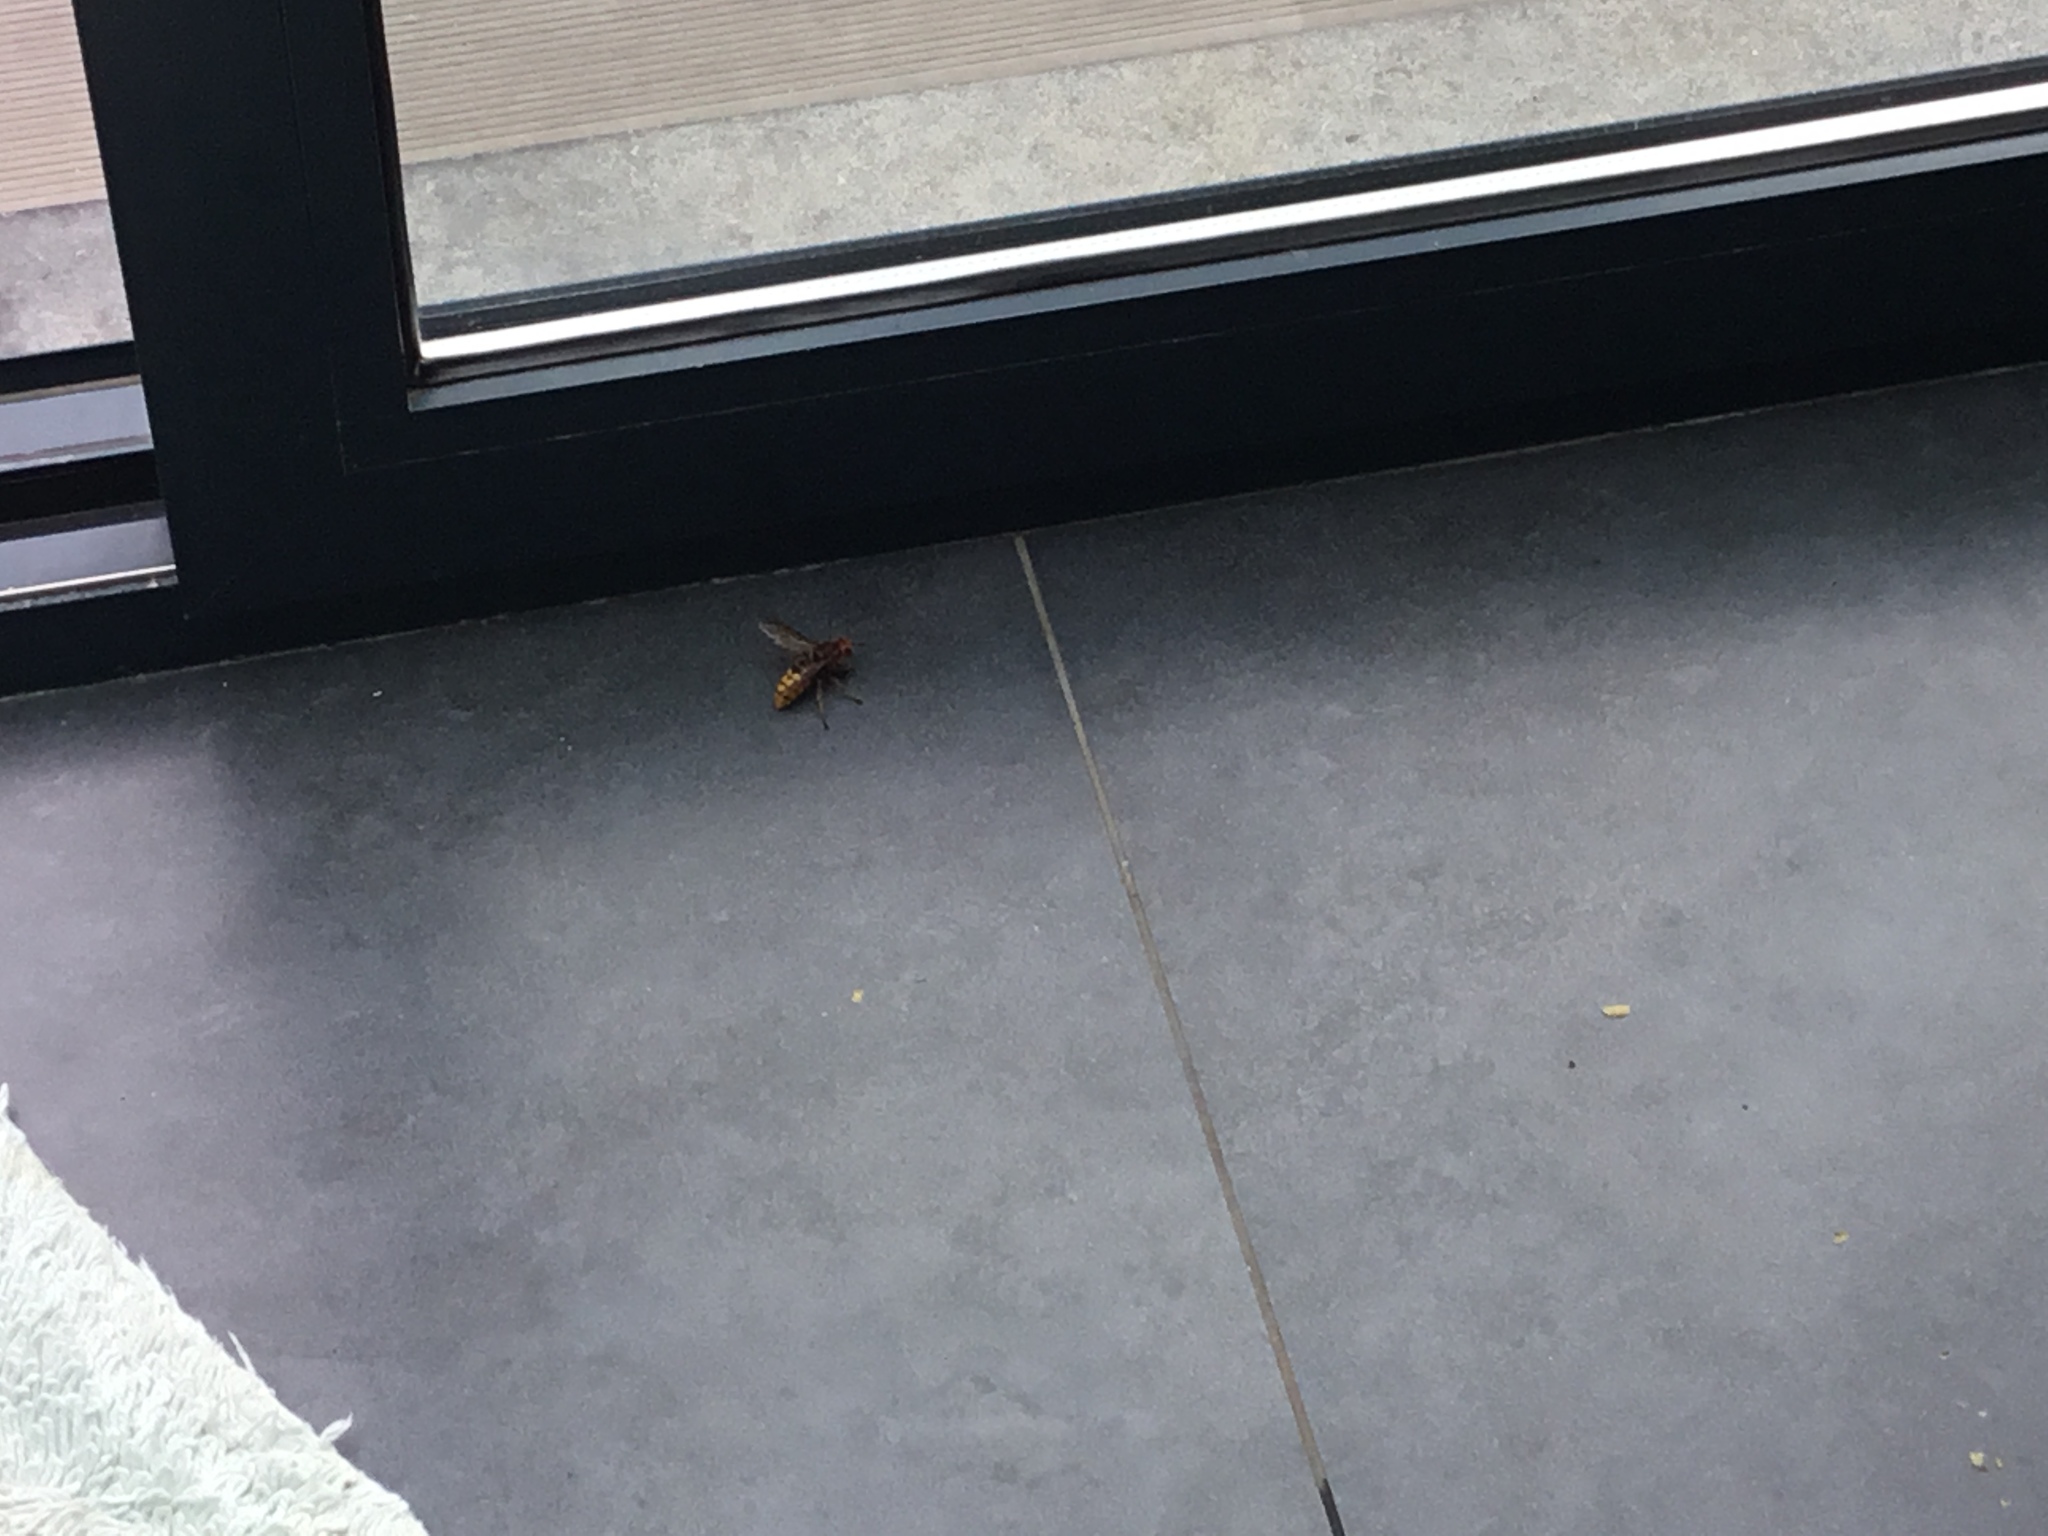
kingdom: Animalia
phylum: Arthropoda
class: Insecta
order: Hymenoptera
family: Vespidae
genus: Vespa
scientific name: Vespa crabro
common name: Hornet
